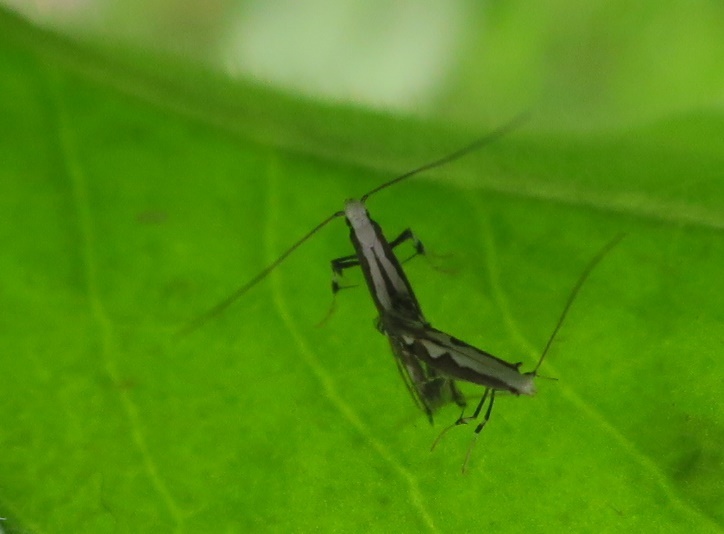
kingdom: Animalia
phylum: Arthropoda
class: Insecta
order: Lepidoptera
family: Gracillariidae
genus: Dialectica
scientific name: Dialectica scalariella
